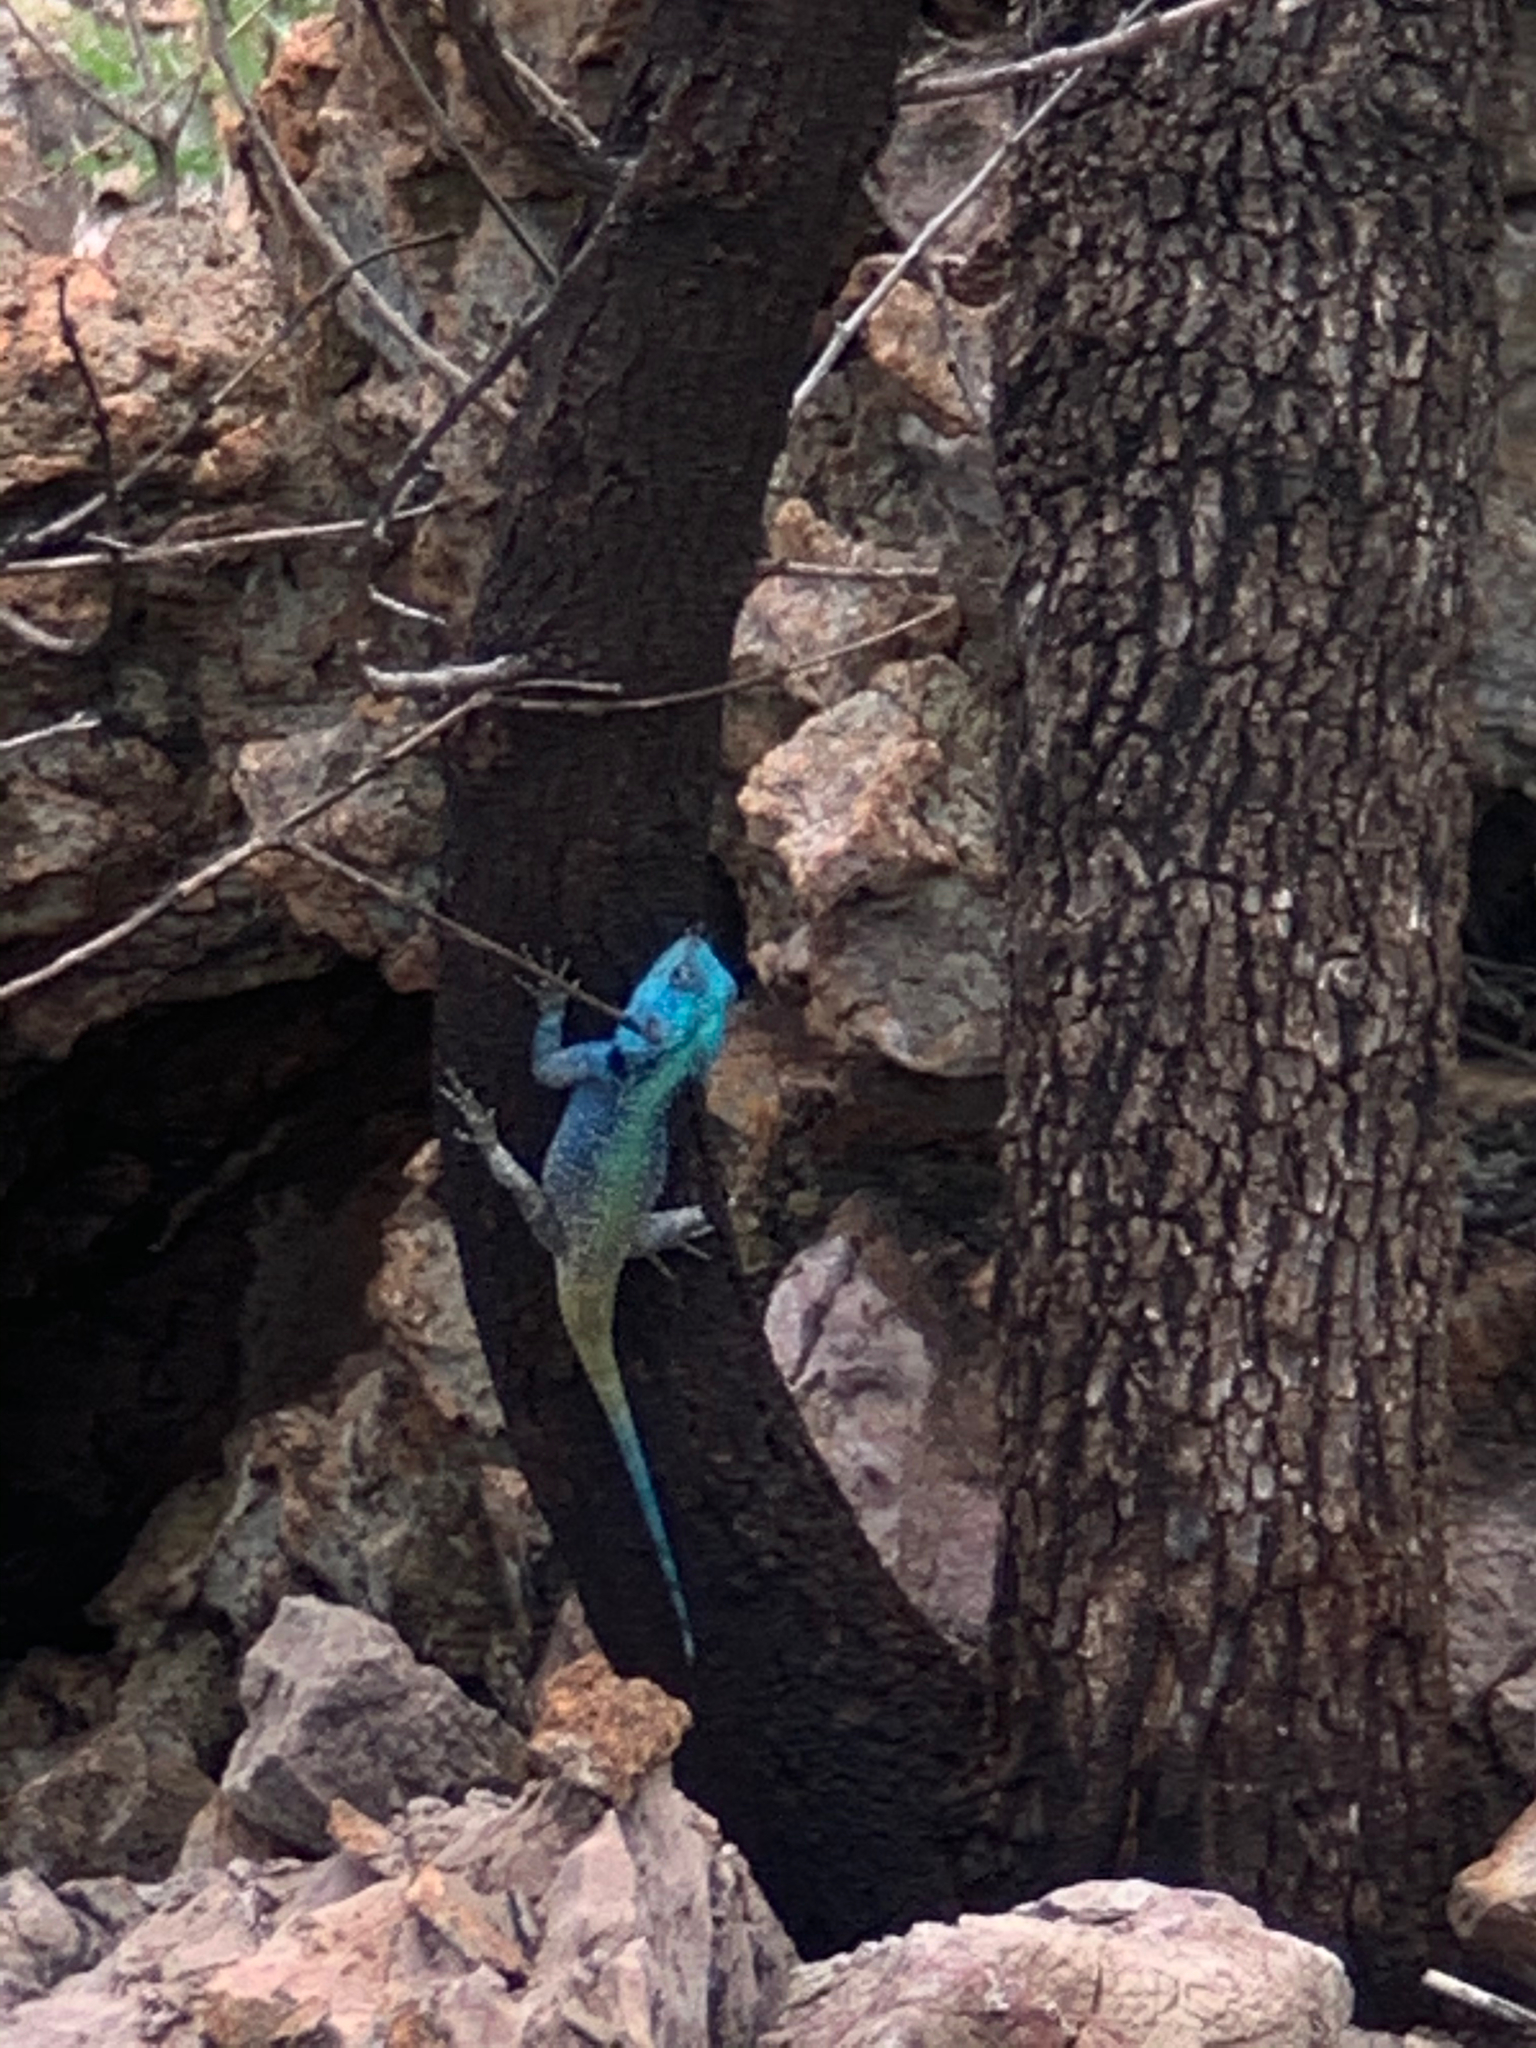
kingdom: Animalia
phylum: Chordata
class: Squamata
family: Agamidae
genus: Acanthocercus
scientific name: Acanthocercus atricollis
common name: Southern tree agama
